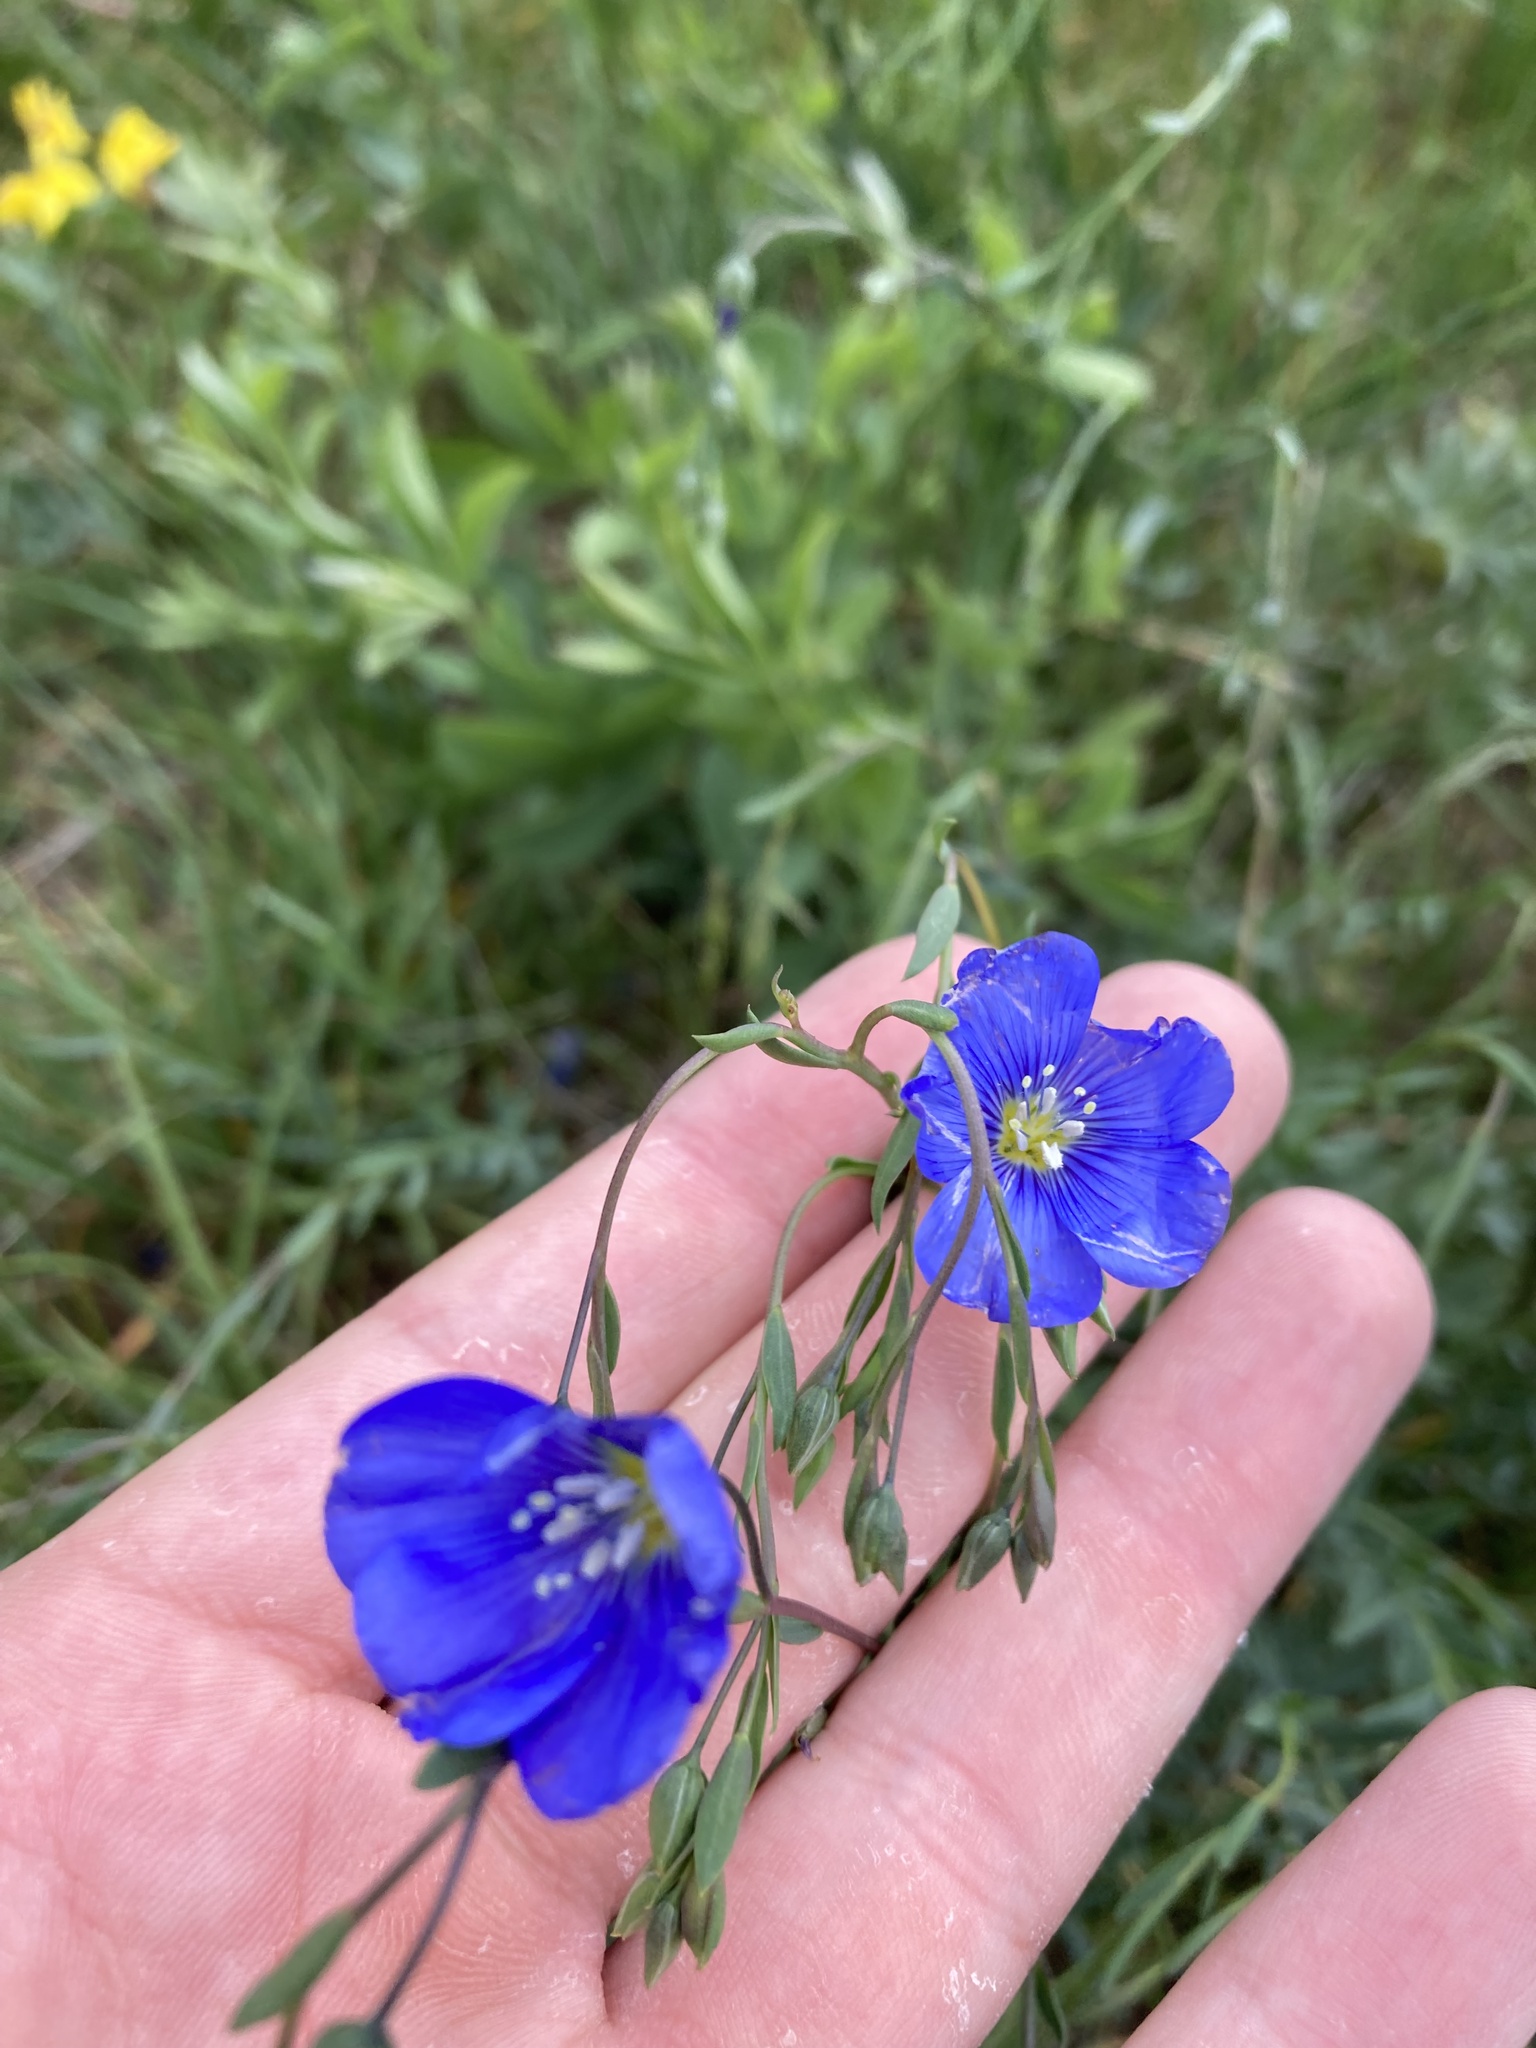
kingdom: Plantae
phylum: Tracheophyta
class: Magnoliopsida
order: Malpighiales
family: Linaceae
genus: Linum
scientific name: Linum lewisii
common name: Prairie flax
